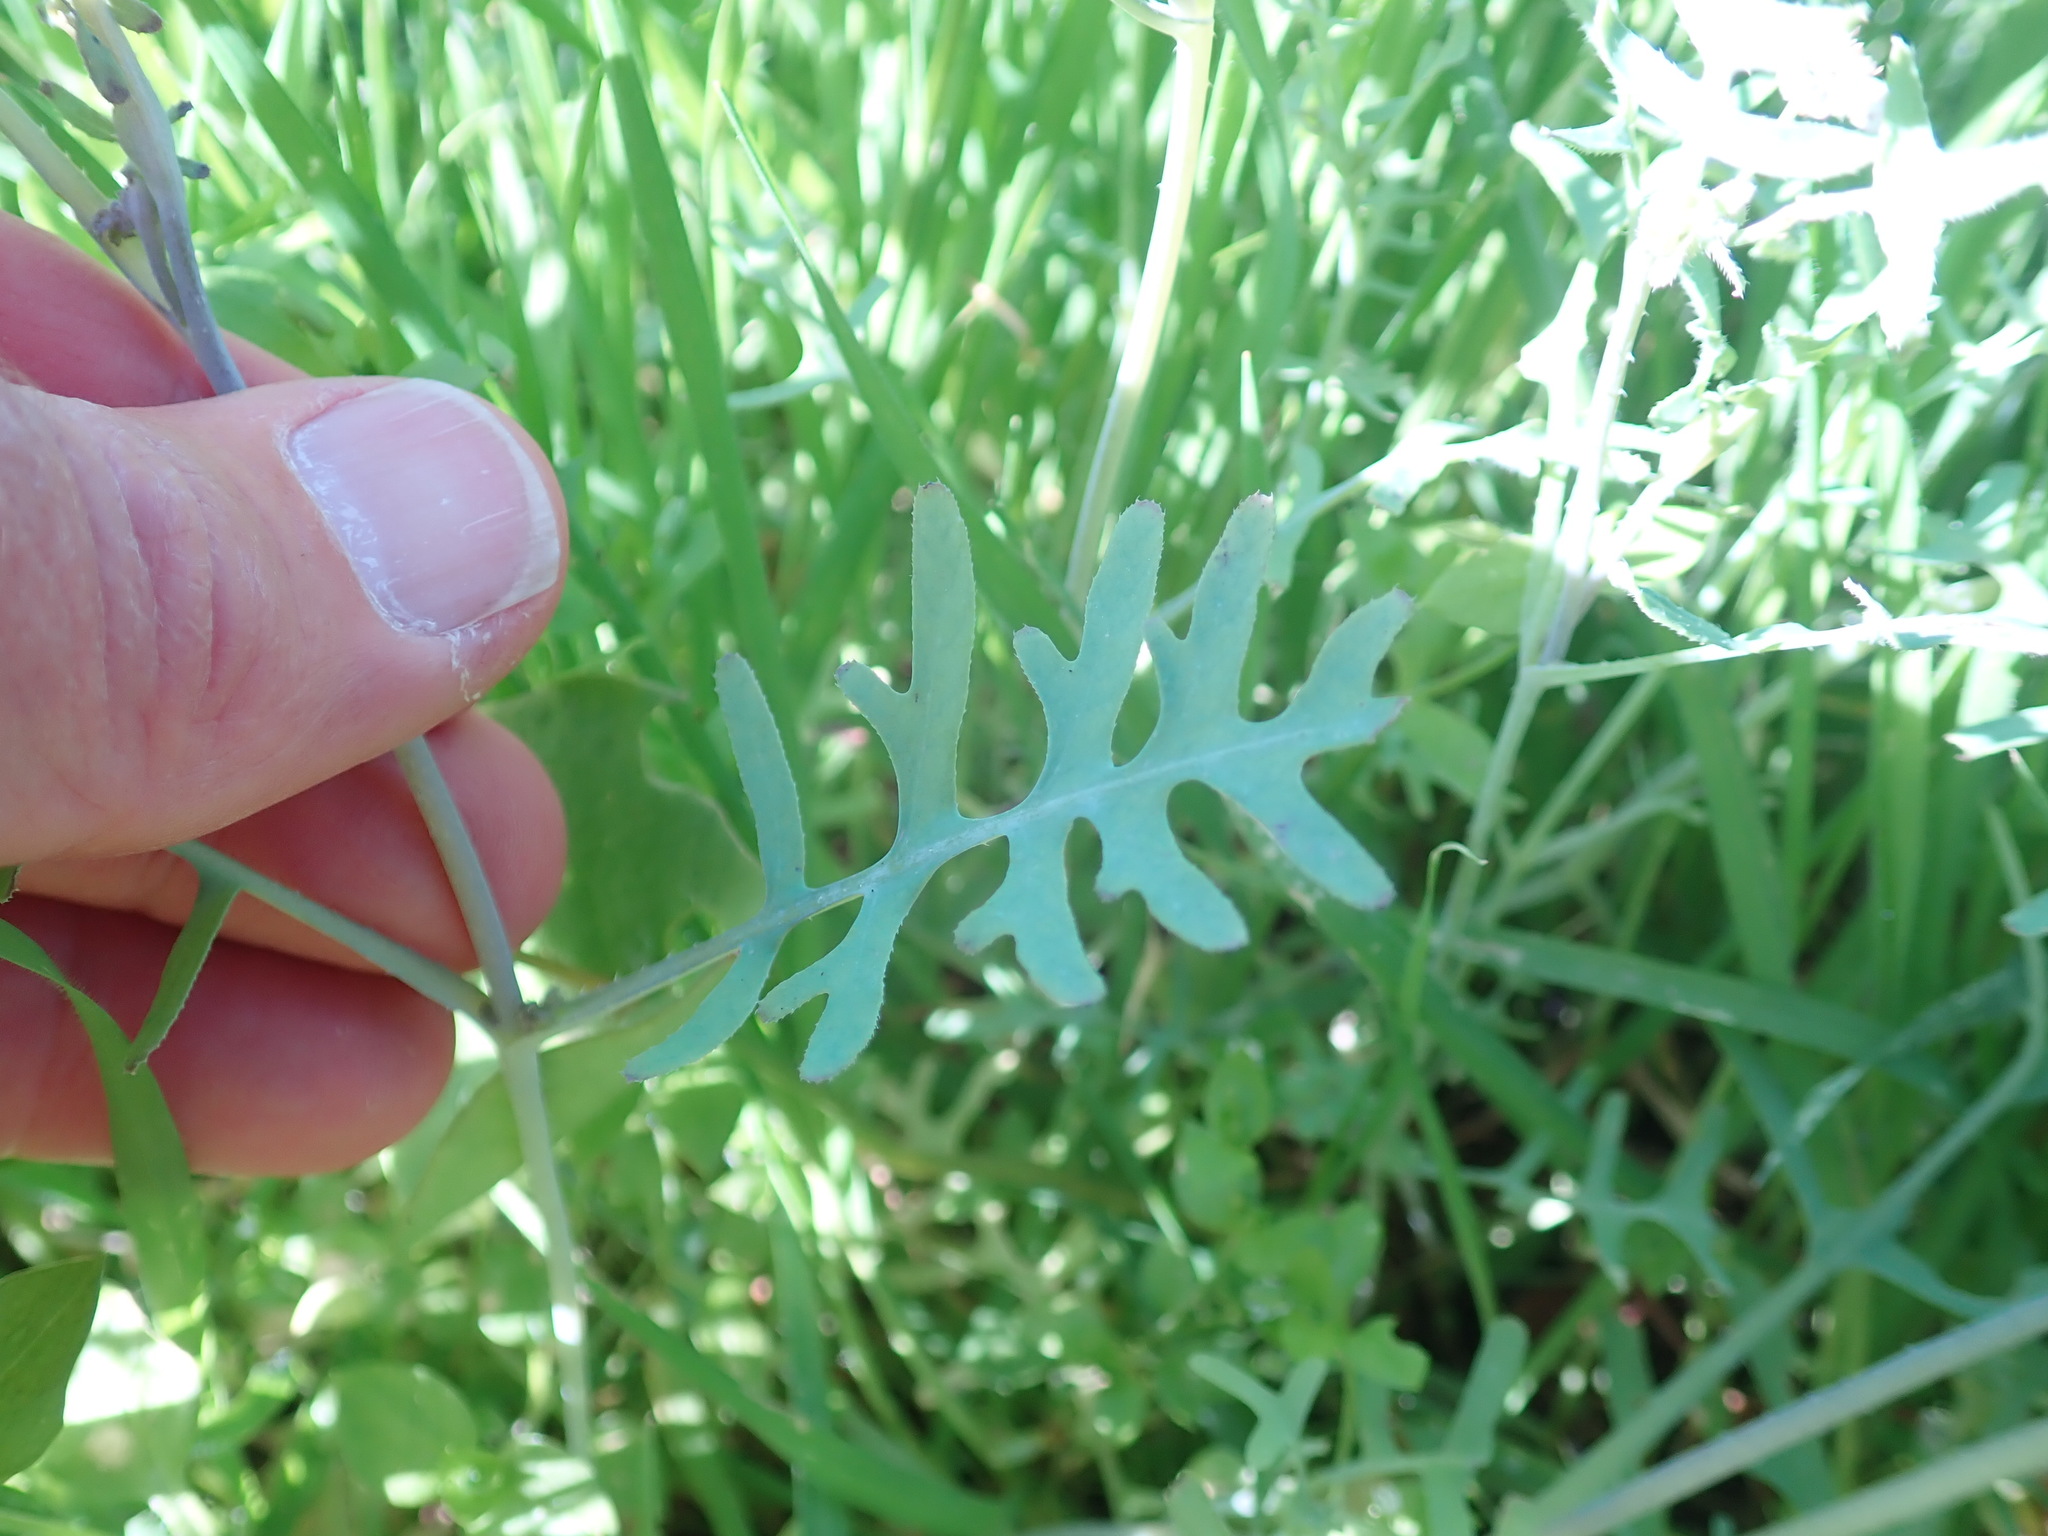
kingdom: Plantae
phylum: Tracheophyta
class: Magnoliopsida
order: Boraginales
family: Hydrophyllaceae
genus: Pholistoma
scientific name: Pholistoma membranaceum
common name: White fiesta-flower
